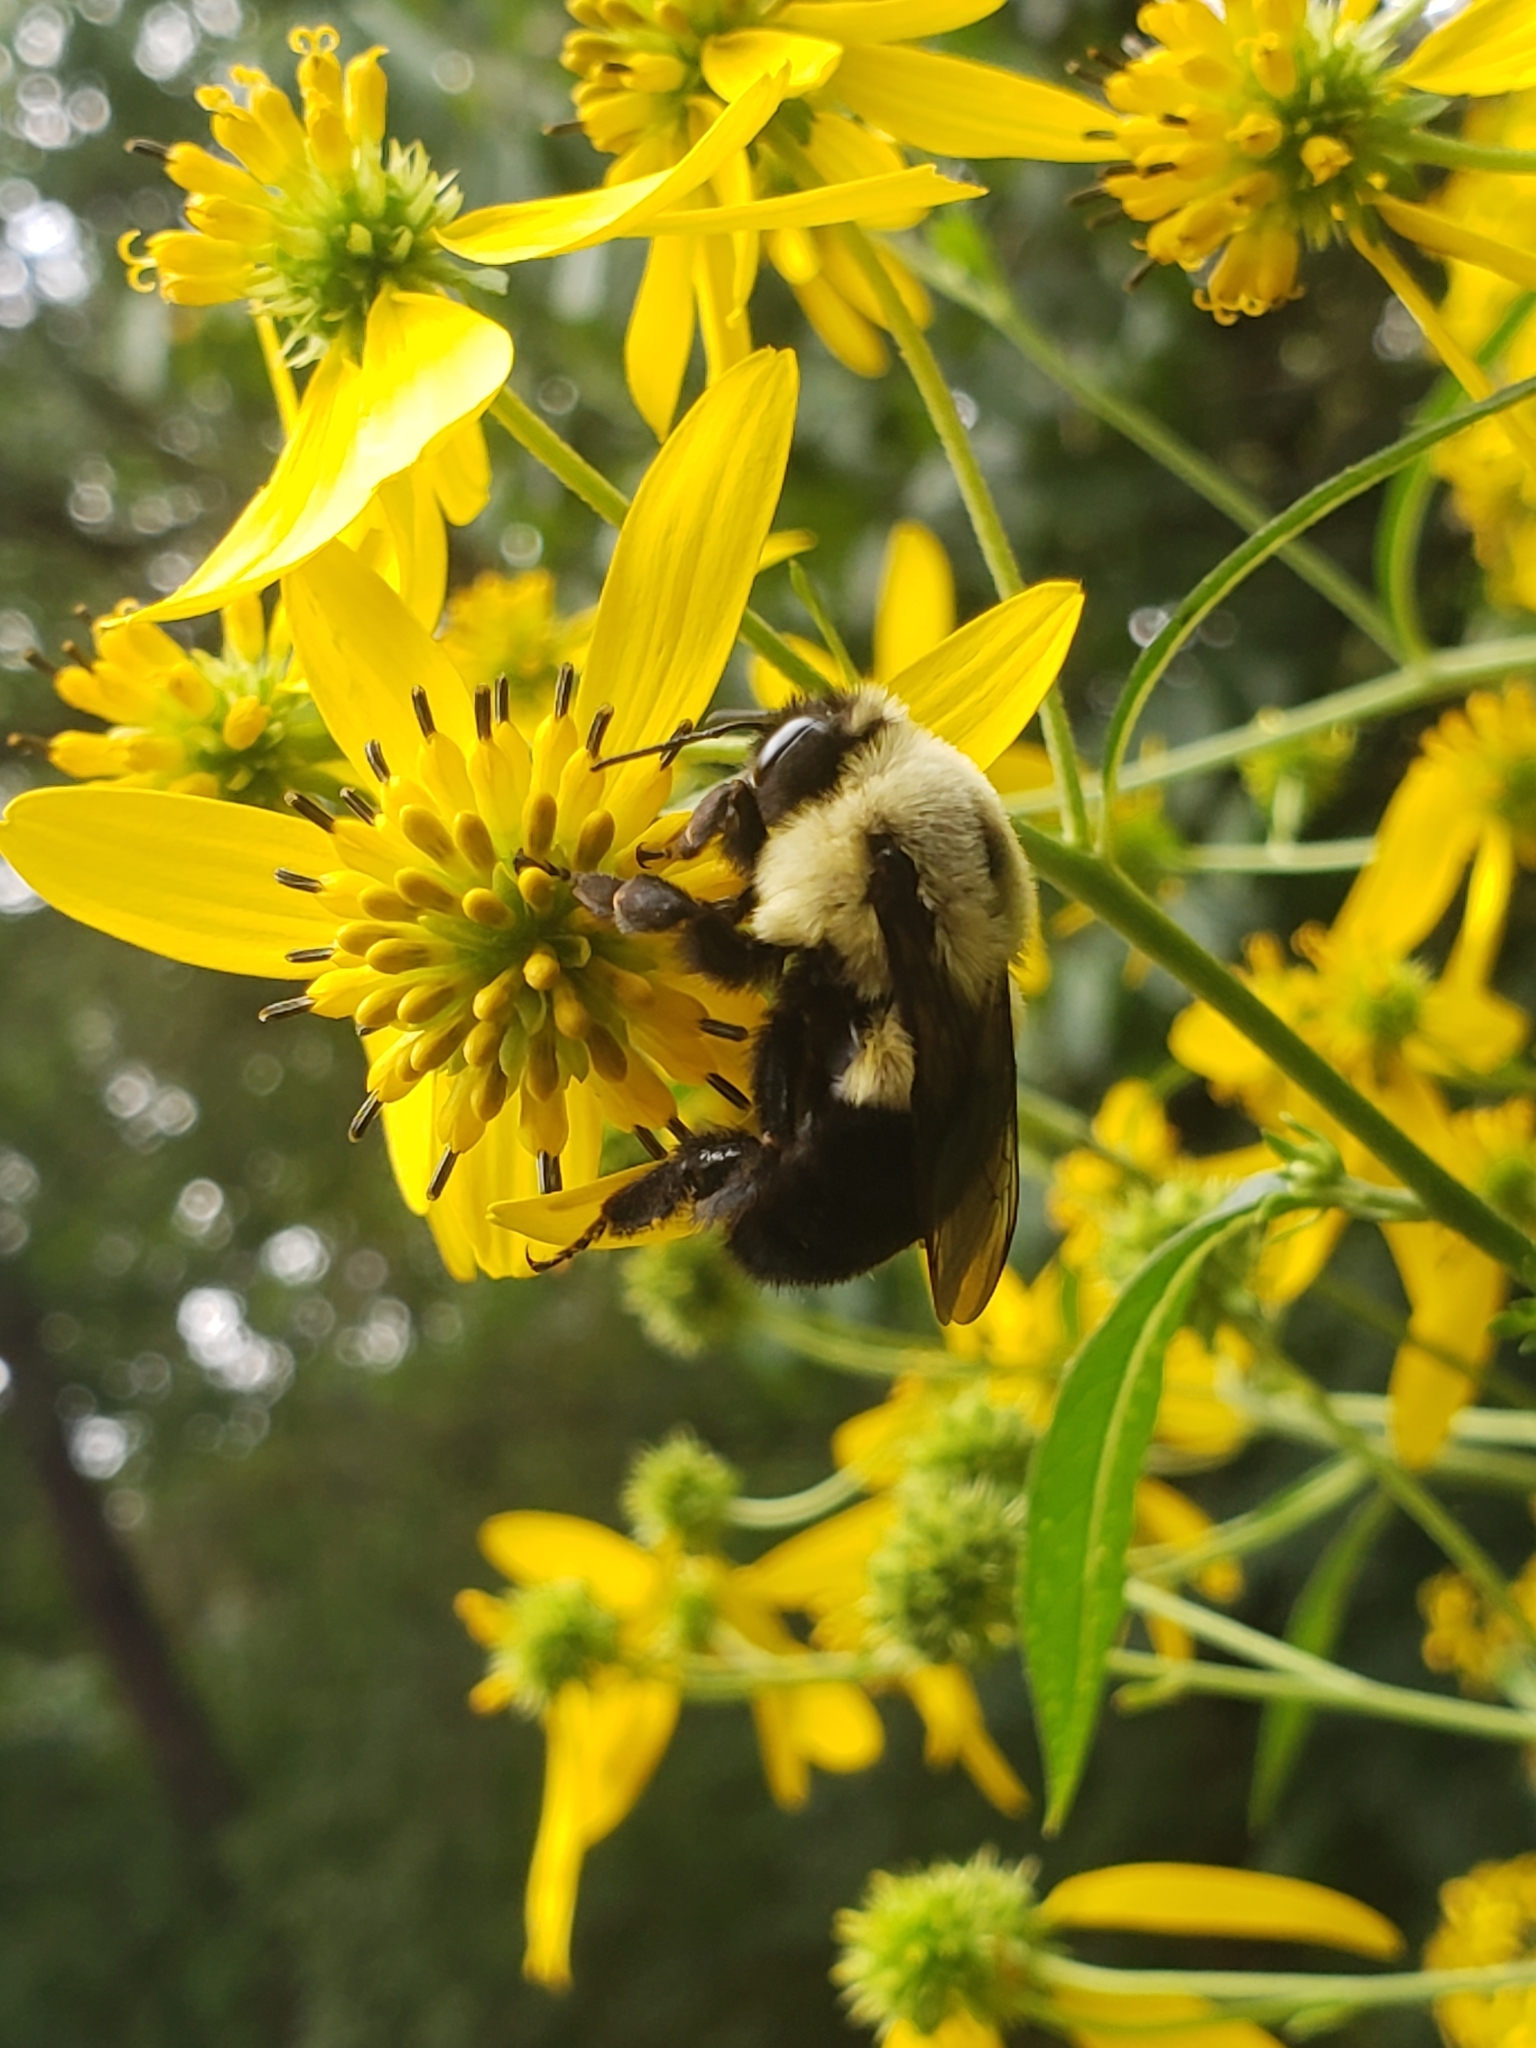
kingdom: Animalia
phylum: Arthropoda
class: Insecta
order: Hymenoptera
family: Apidae
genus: Bombus
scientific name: Bombus impatiens
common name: Common eastern bumble bee
